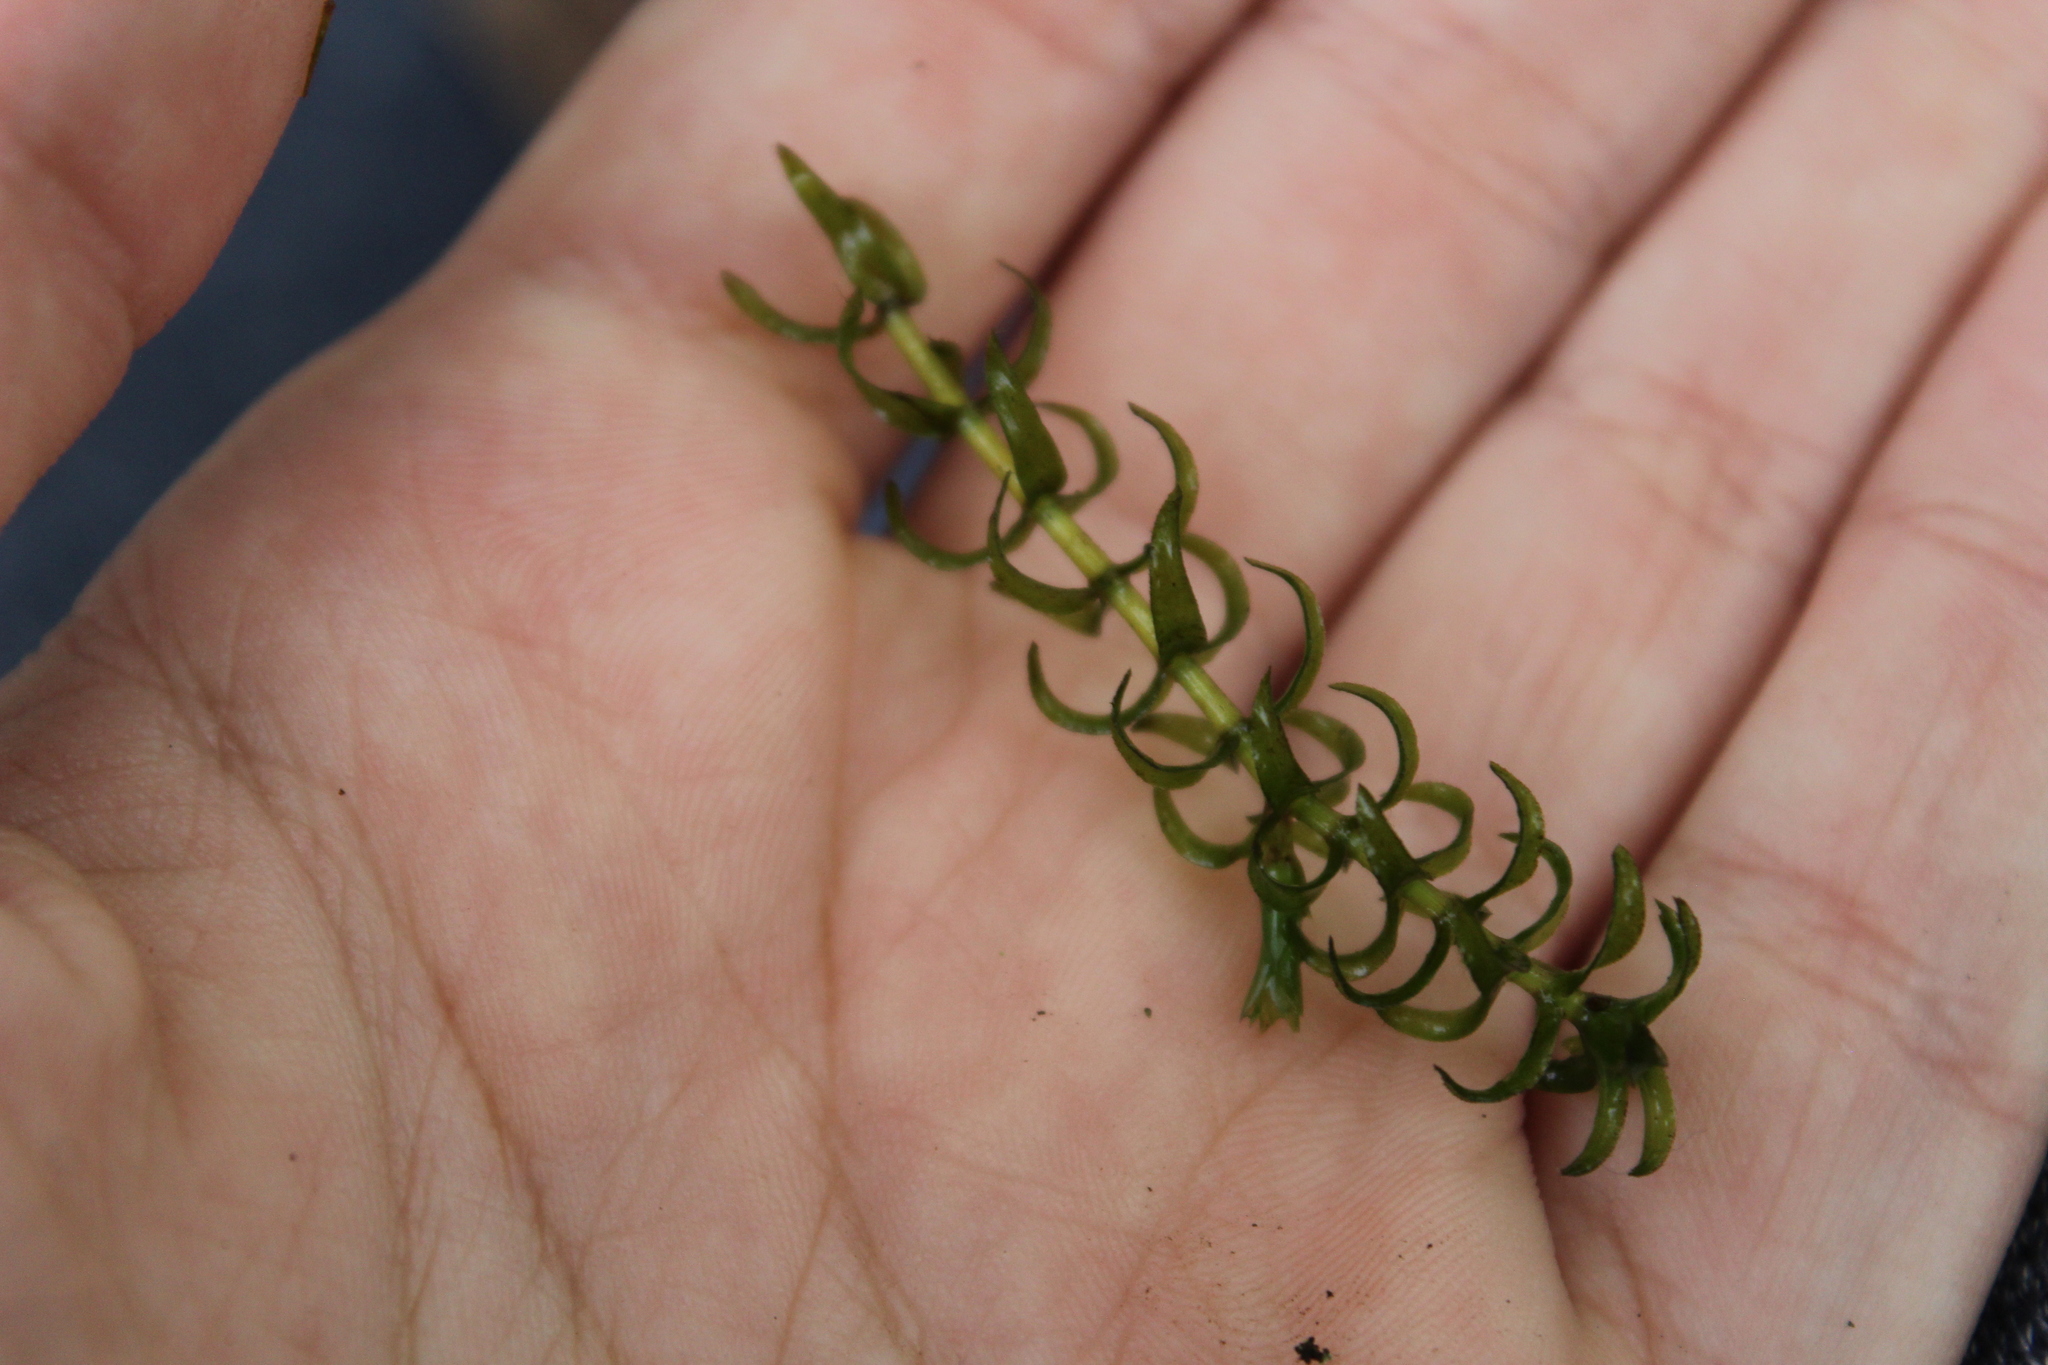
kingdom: Plantae
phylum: Tracheophyta
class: Liliopsida
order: Alismatales
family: Hydrocharitaceae
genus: Elodea
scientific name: Elodea nuttallii
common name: Nuttall's waterweed
